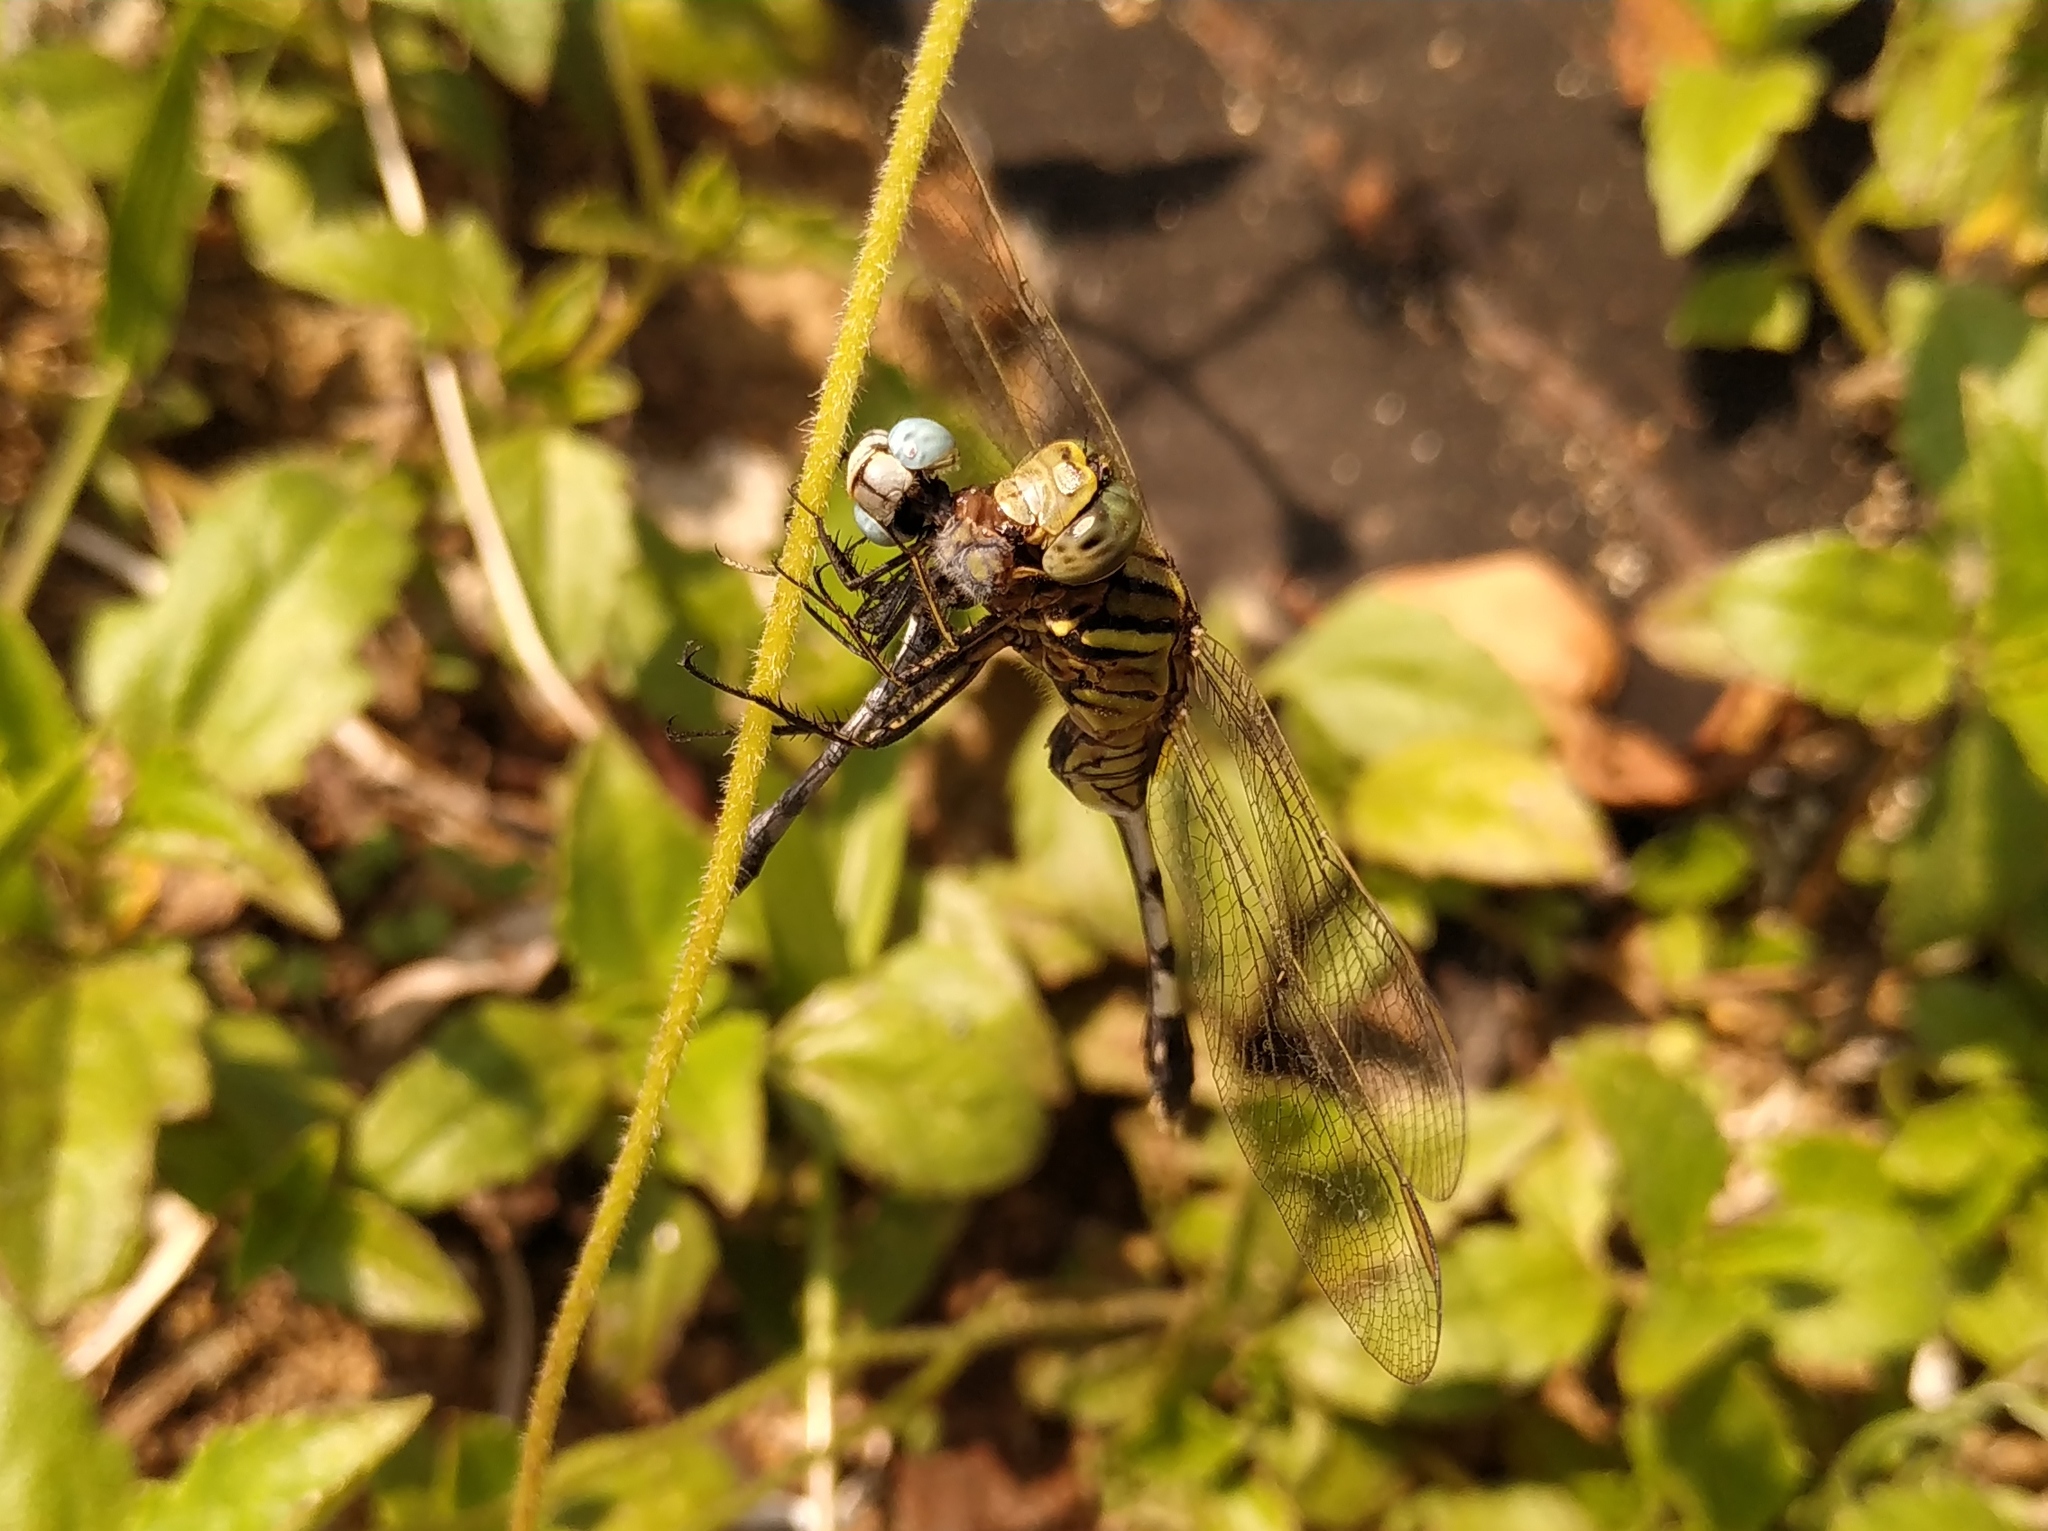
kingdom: Animalia
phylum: Arthropoda
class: Insecta
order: Odonata
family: Libellulidae
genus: Orthetrum
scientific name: Orthetrum sabina
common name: Slender skimmer
